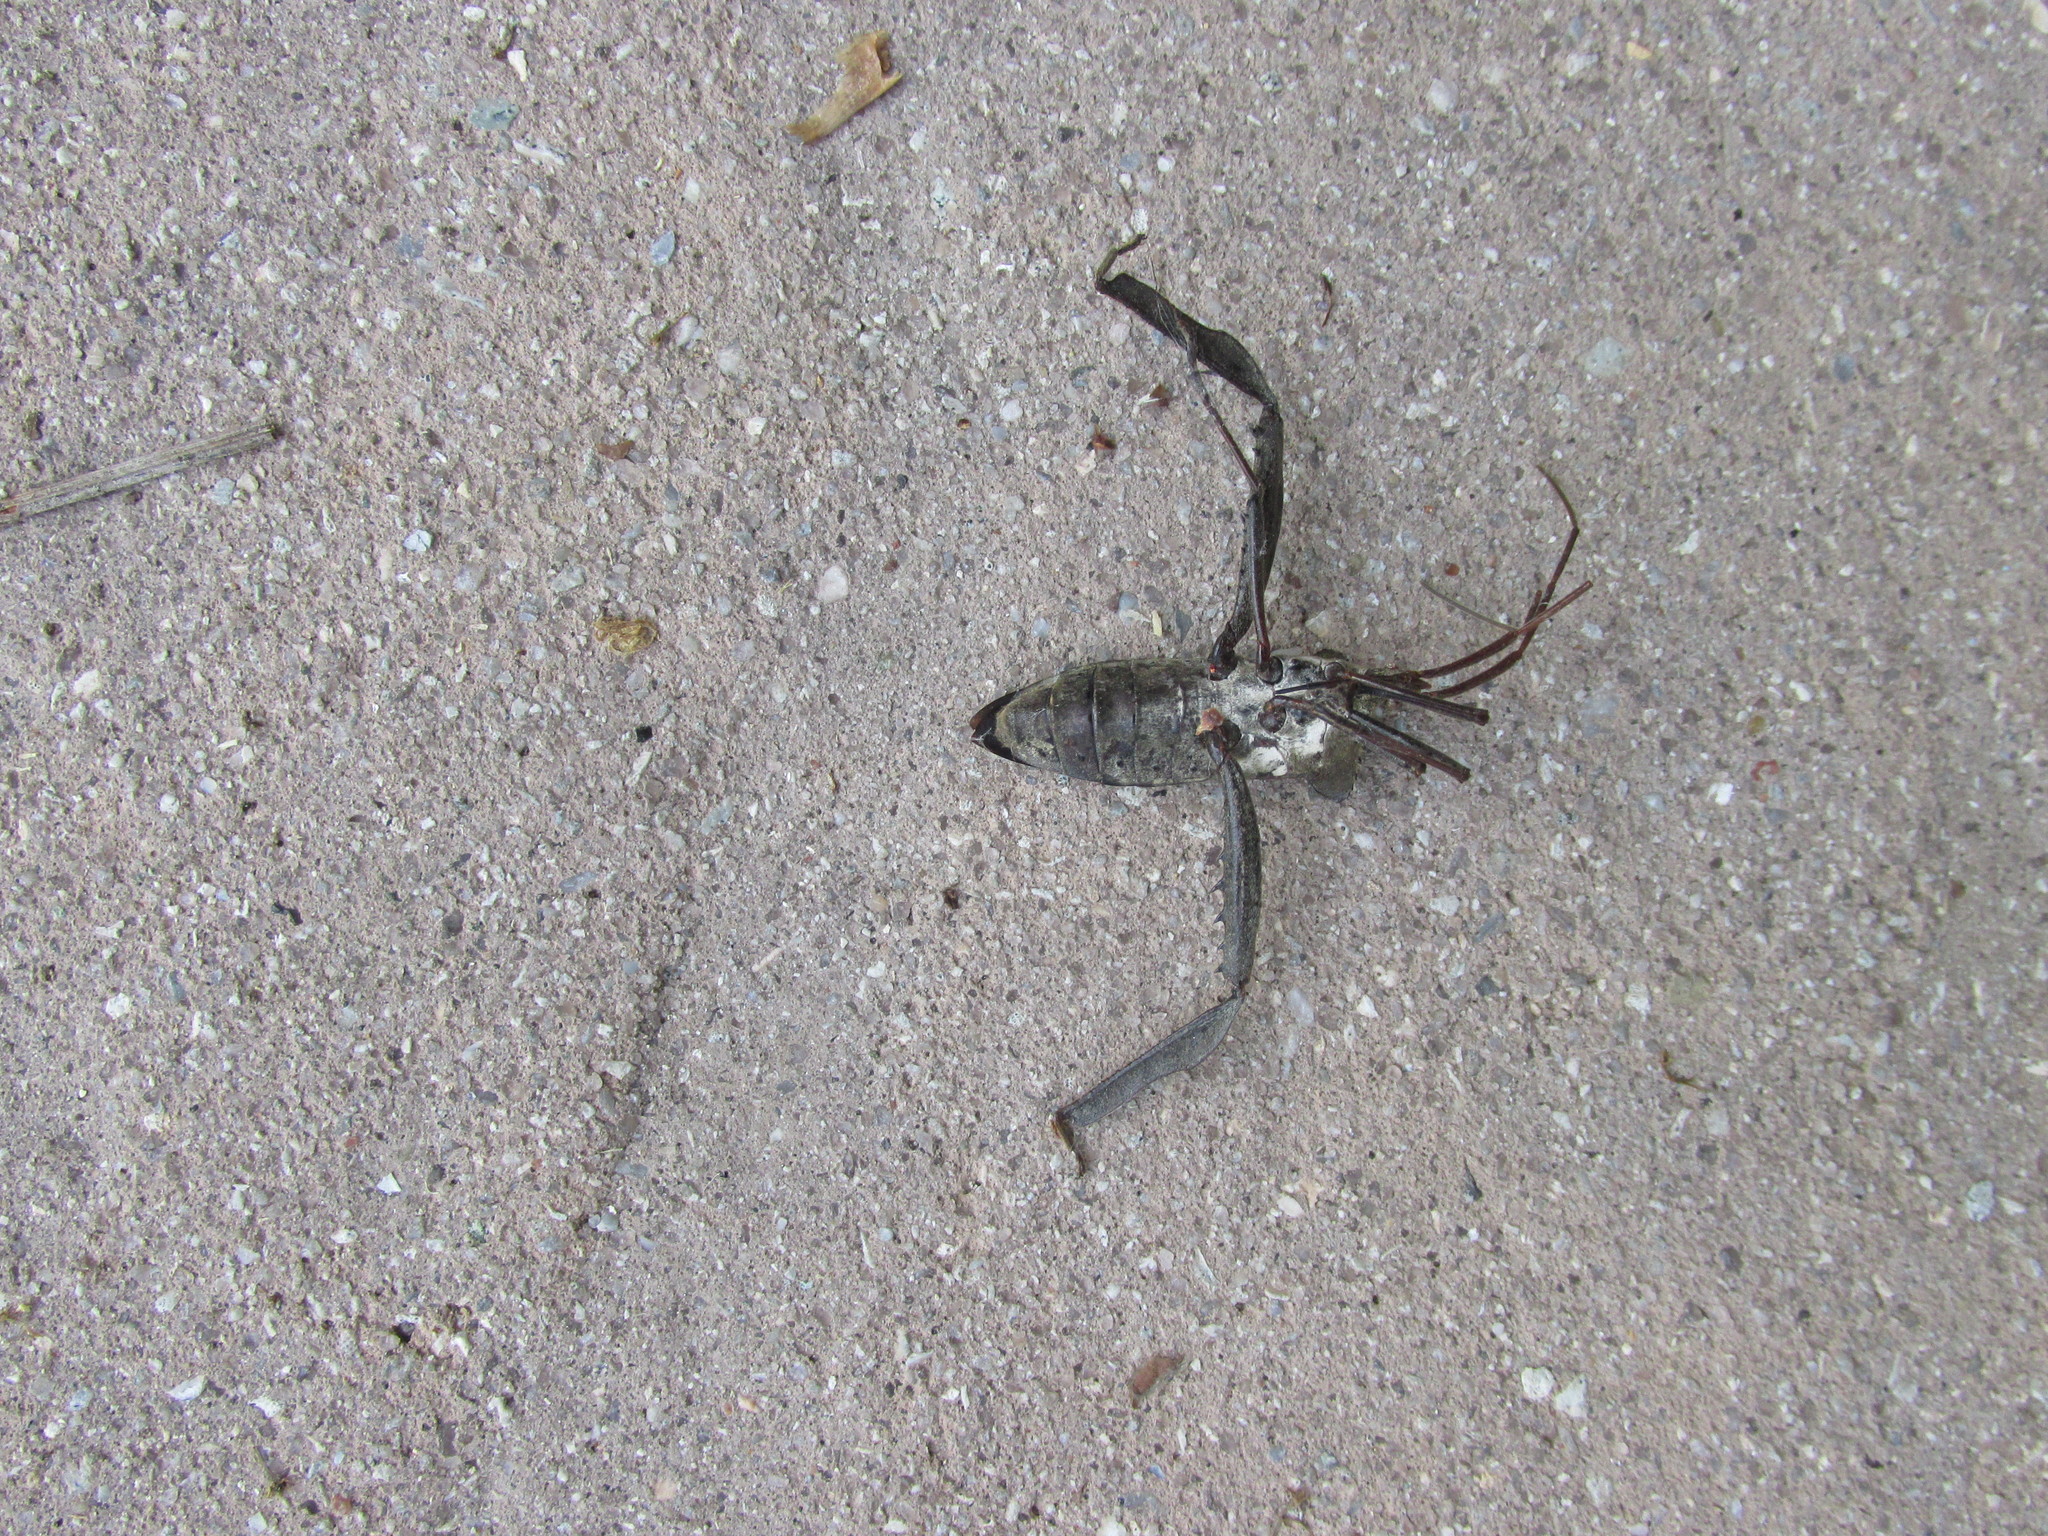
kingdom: Animalia
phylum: Arthropoda
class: Insecta
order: Hemiptera
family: Coreidae
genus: Acanthocephala
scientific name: Acanthocephala declivis
